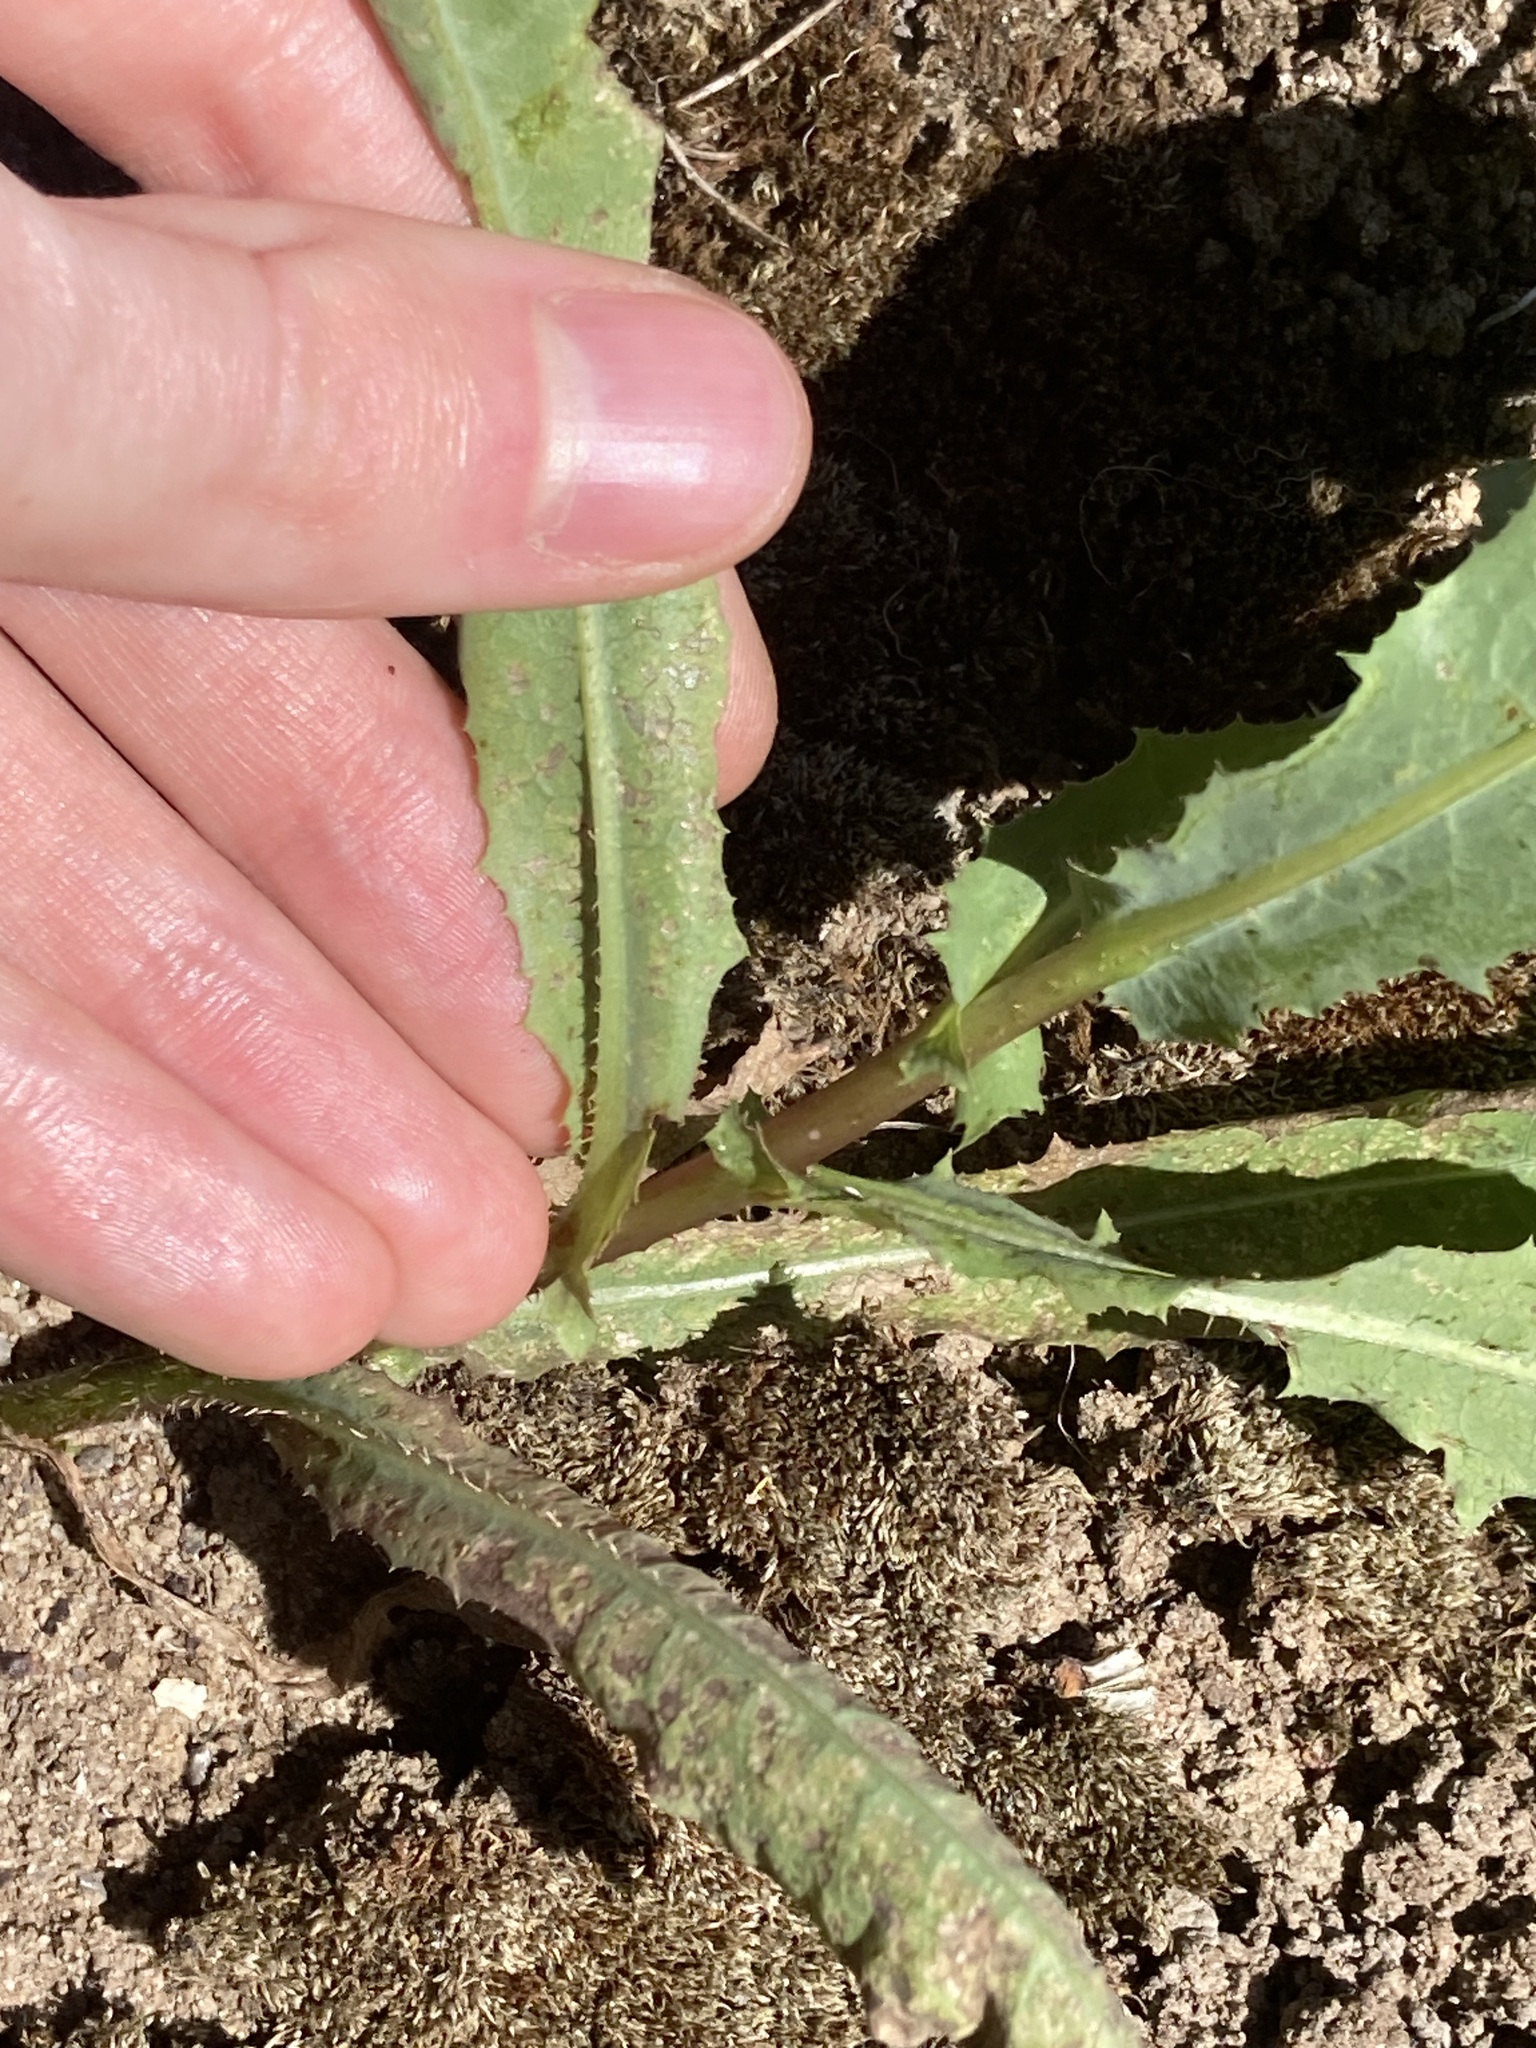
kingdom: Plantae
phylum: Tracheophyta
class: Magnoliopsida
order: Asterales
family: Asteraceae
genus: Lactuca
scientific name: Lactuca serriola
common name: Prickly lettuce
